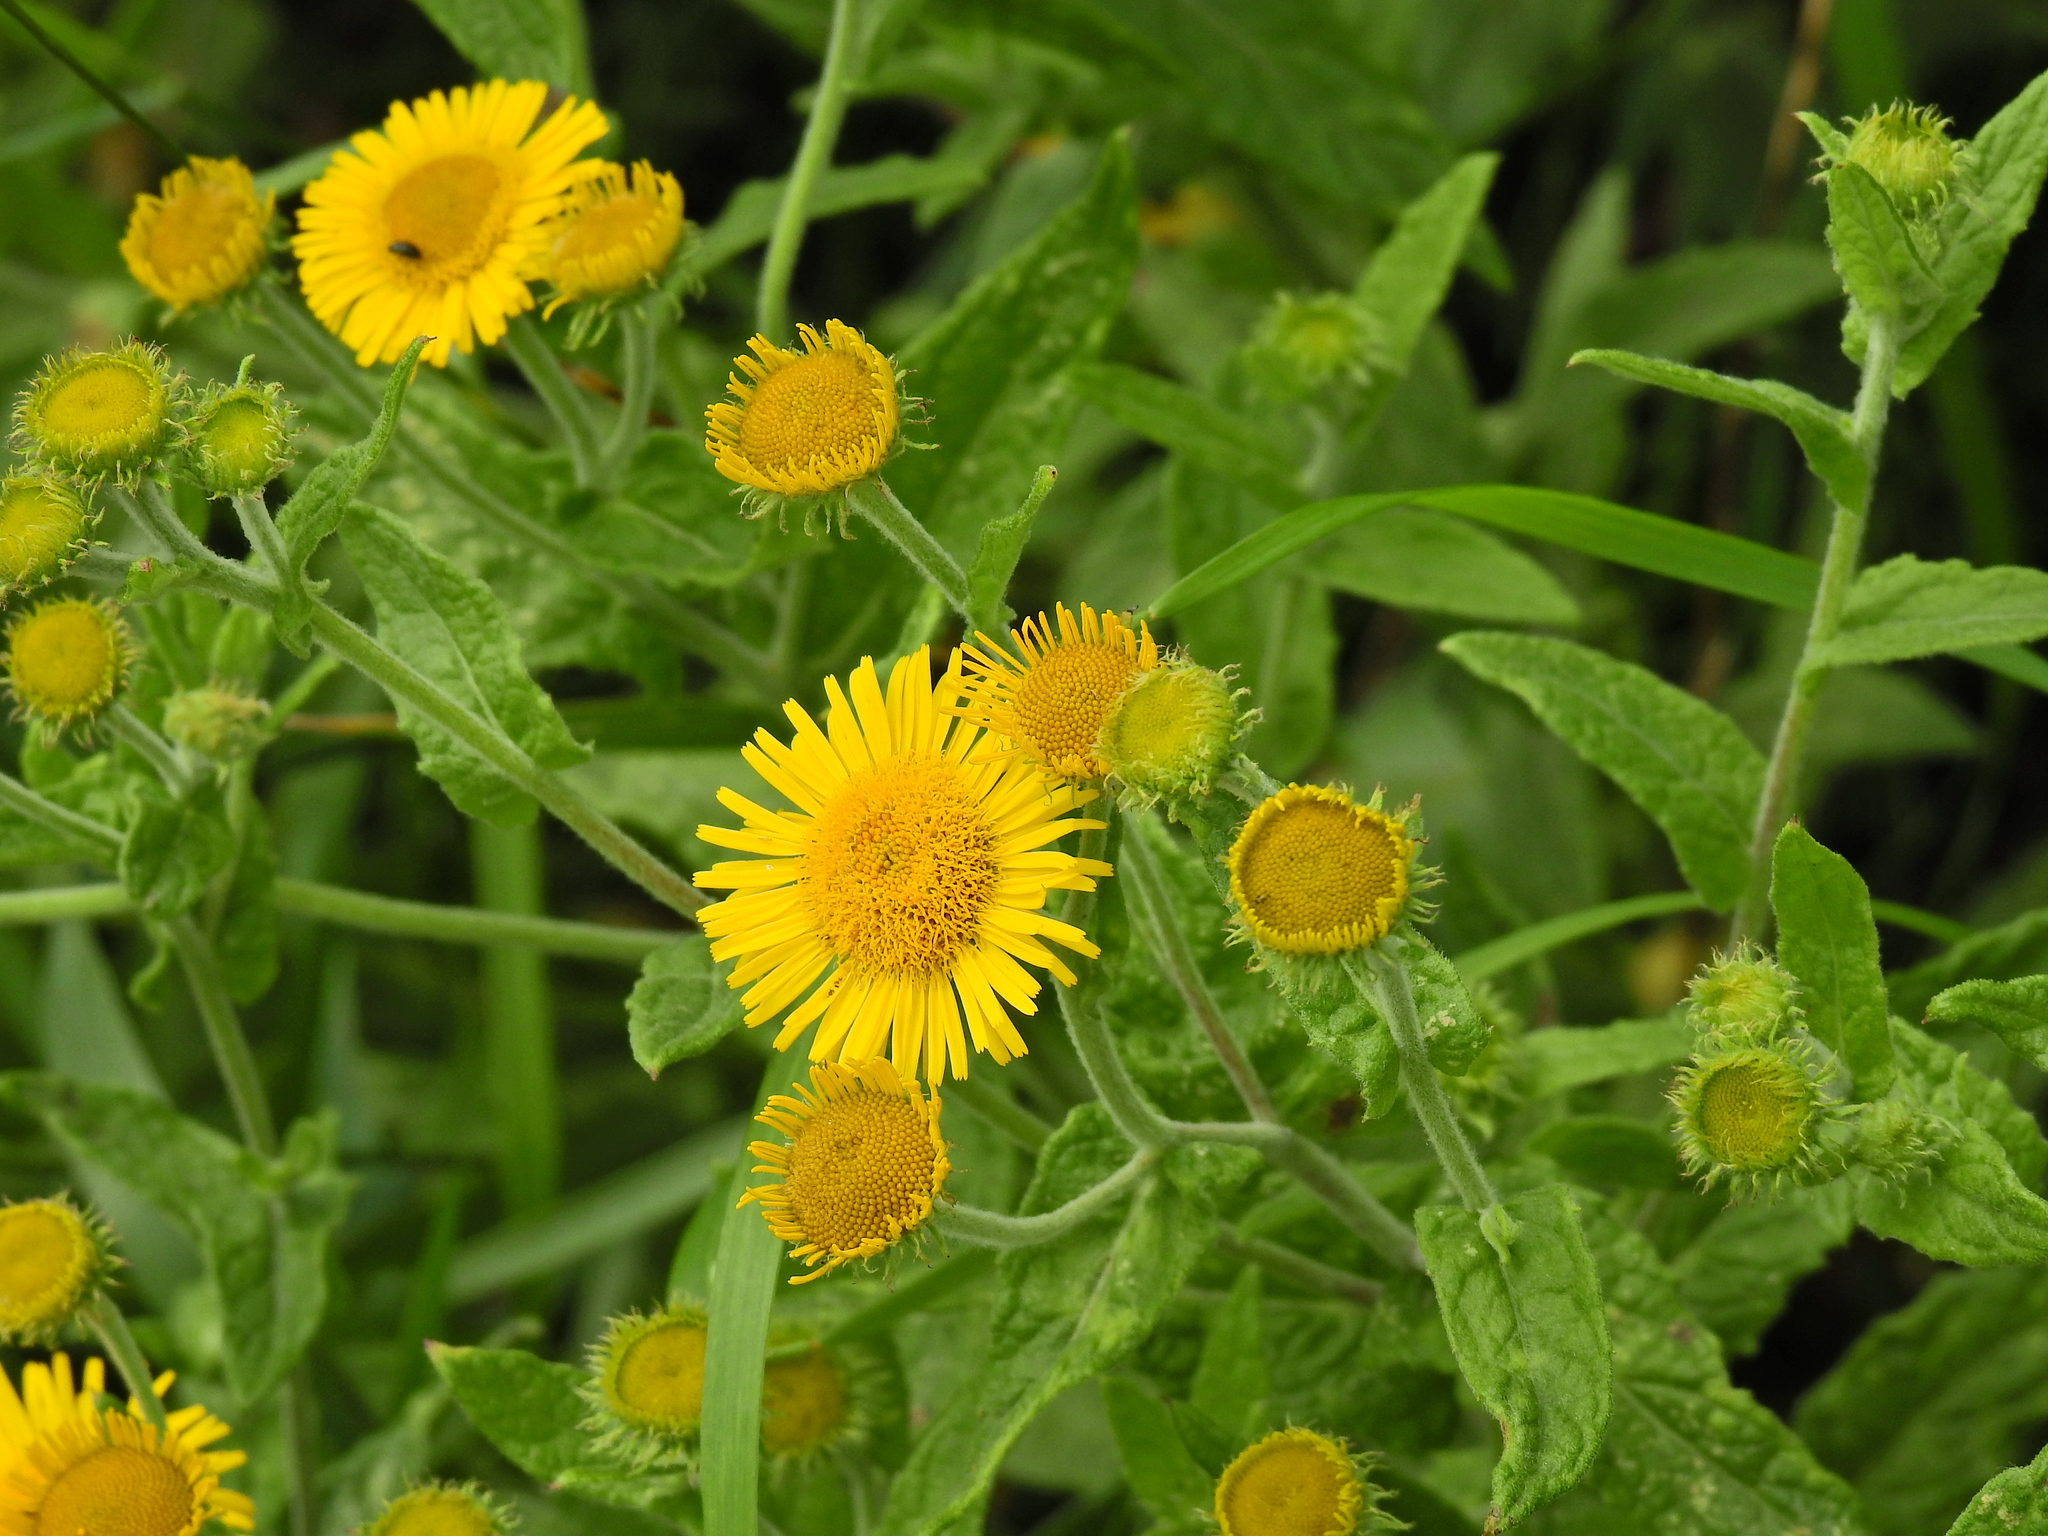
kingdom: Plantae
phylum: Tracheophyta
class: Magnoliopsida
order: Asterales
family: Asteraceae
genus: Pulicaria
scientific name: Pulicaria dysenterica
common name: Common fleabane
